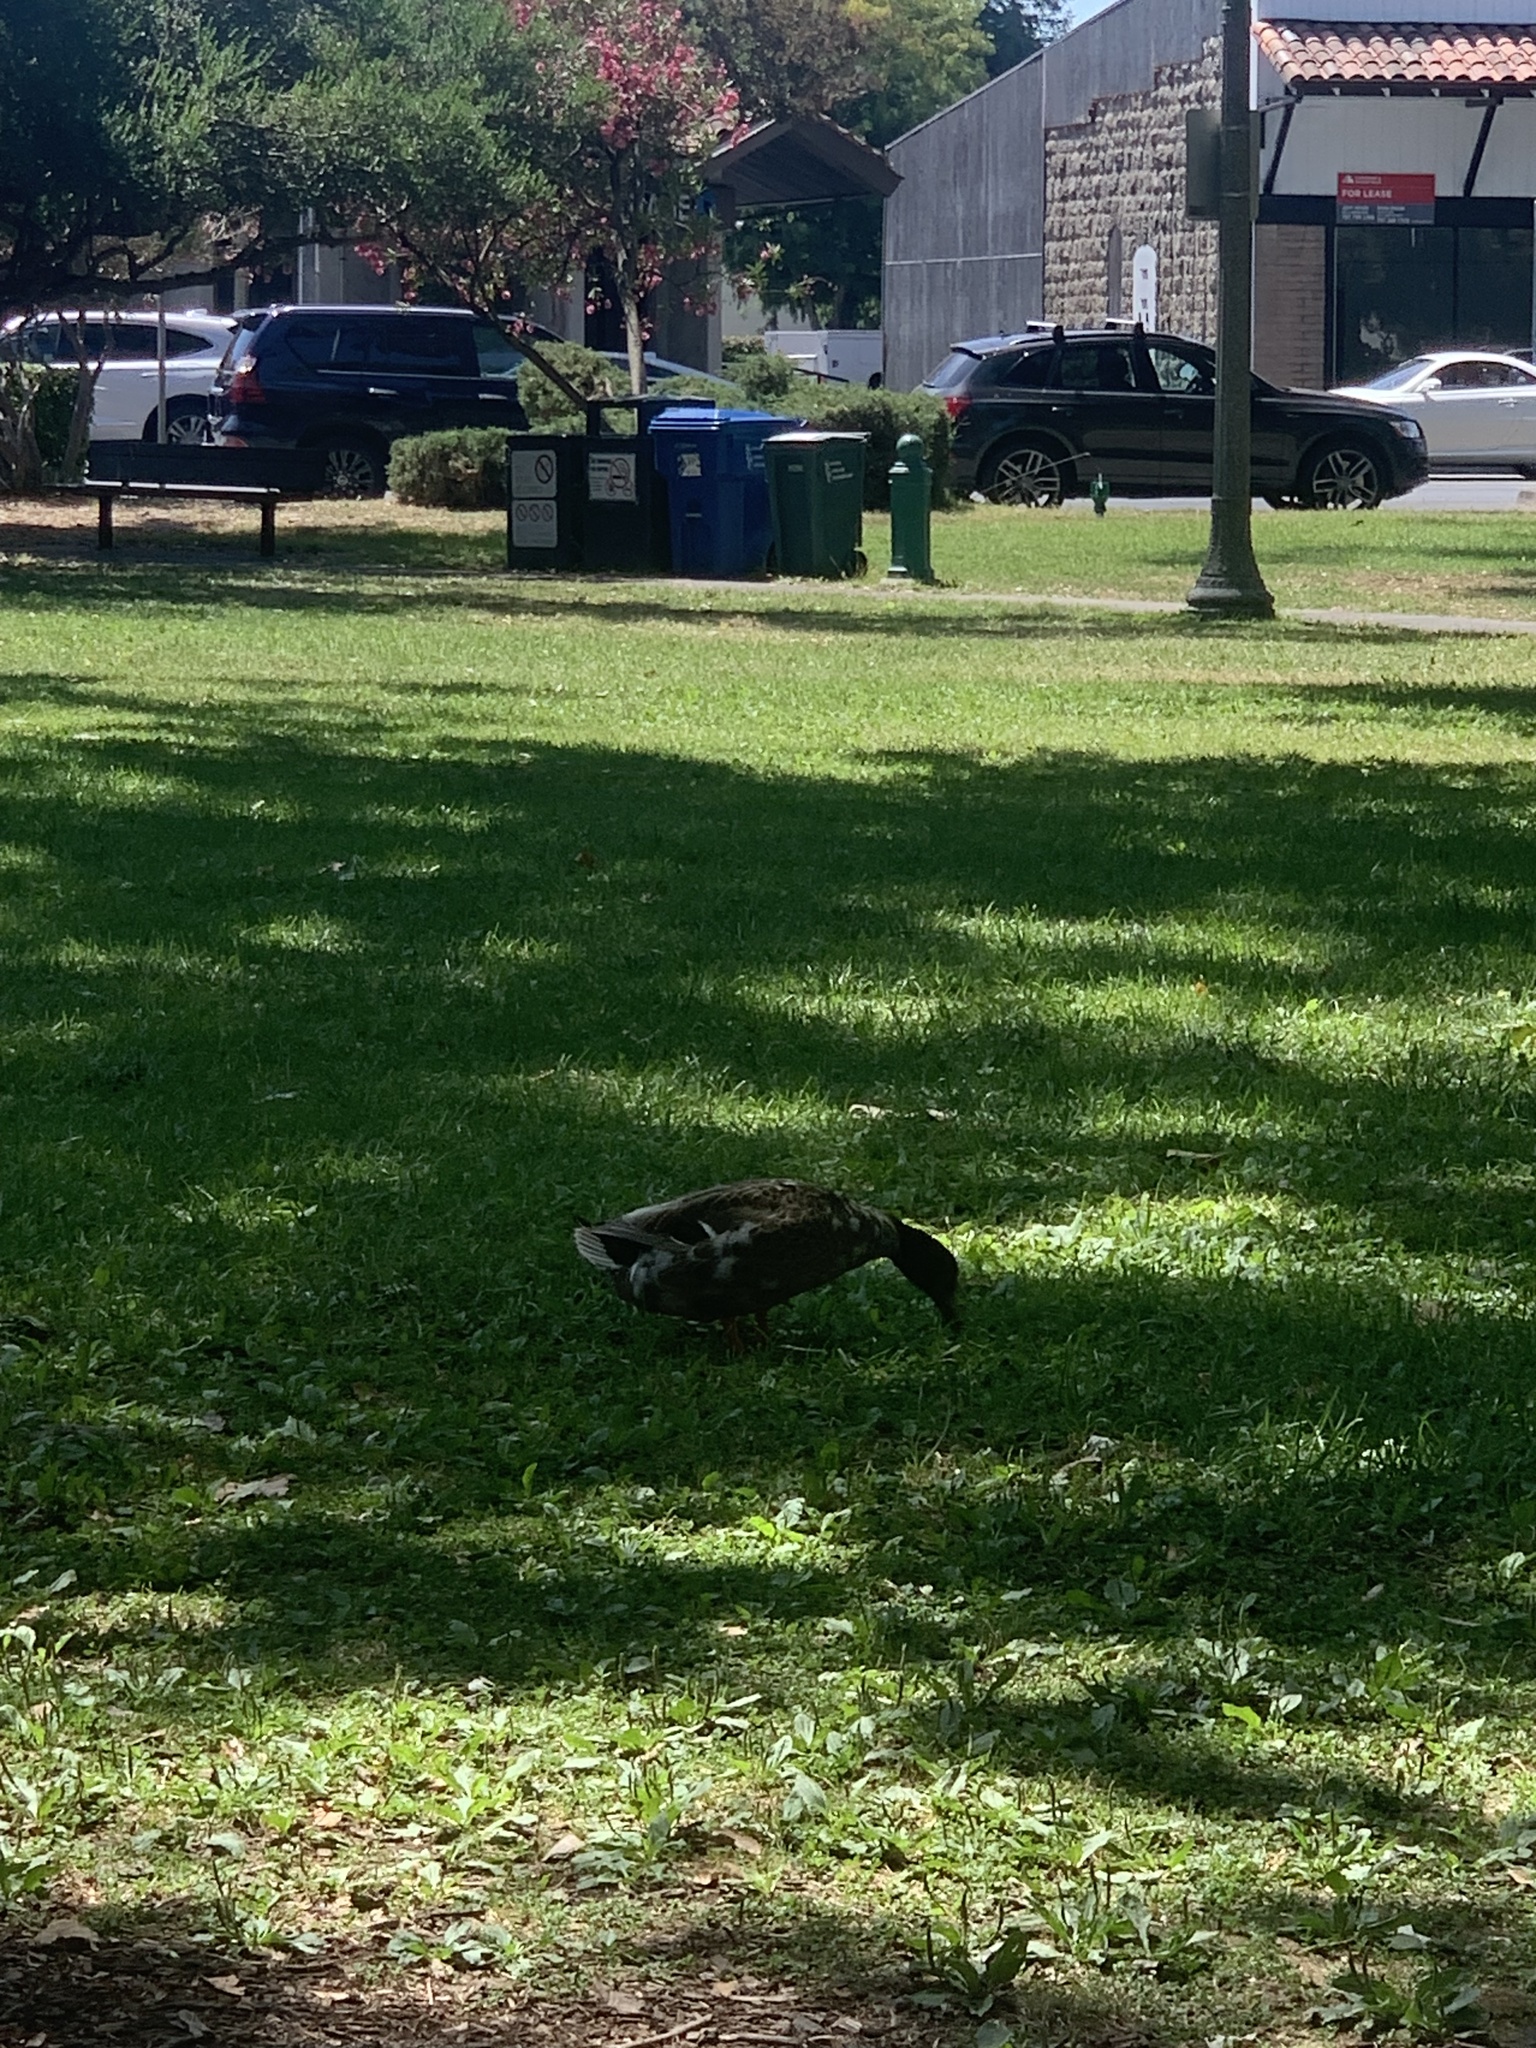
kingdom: Animalia
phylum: Chordata
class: Aves
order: Anseriformes
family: Anatidae
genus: Anas
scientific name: Anas platyrhynchos
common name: Mallard
